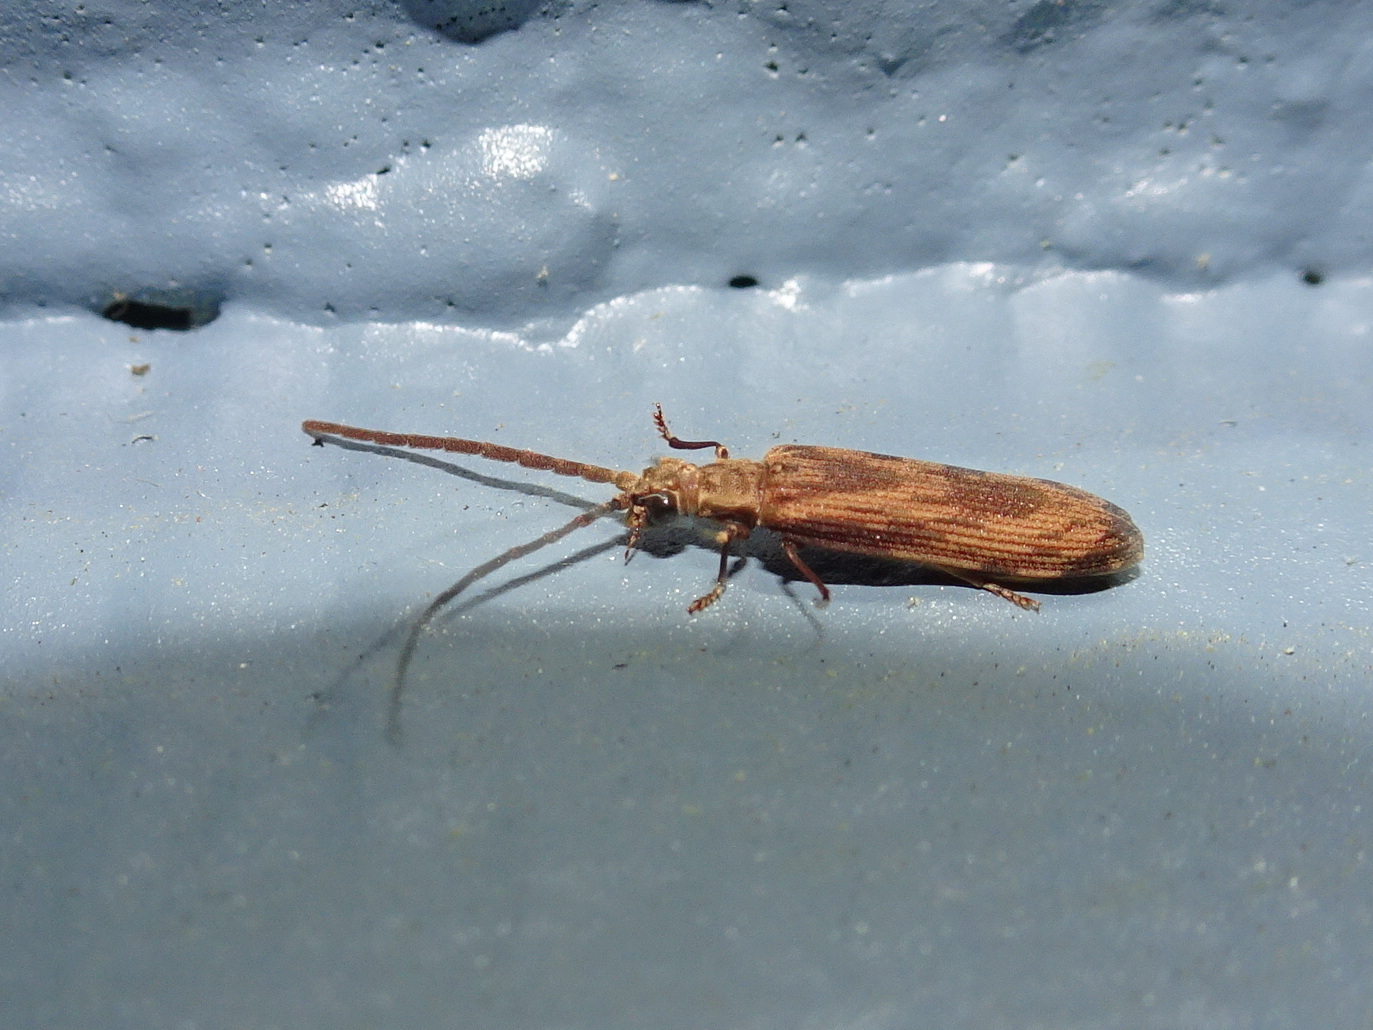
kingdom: Animalia
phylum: Arthropoda
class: Insecta
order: Coleoptera
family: Cupedidae
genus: Tenomerga
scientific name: Tenomerga cinerea
